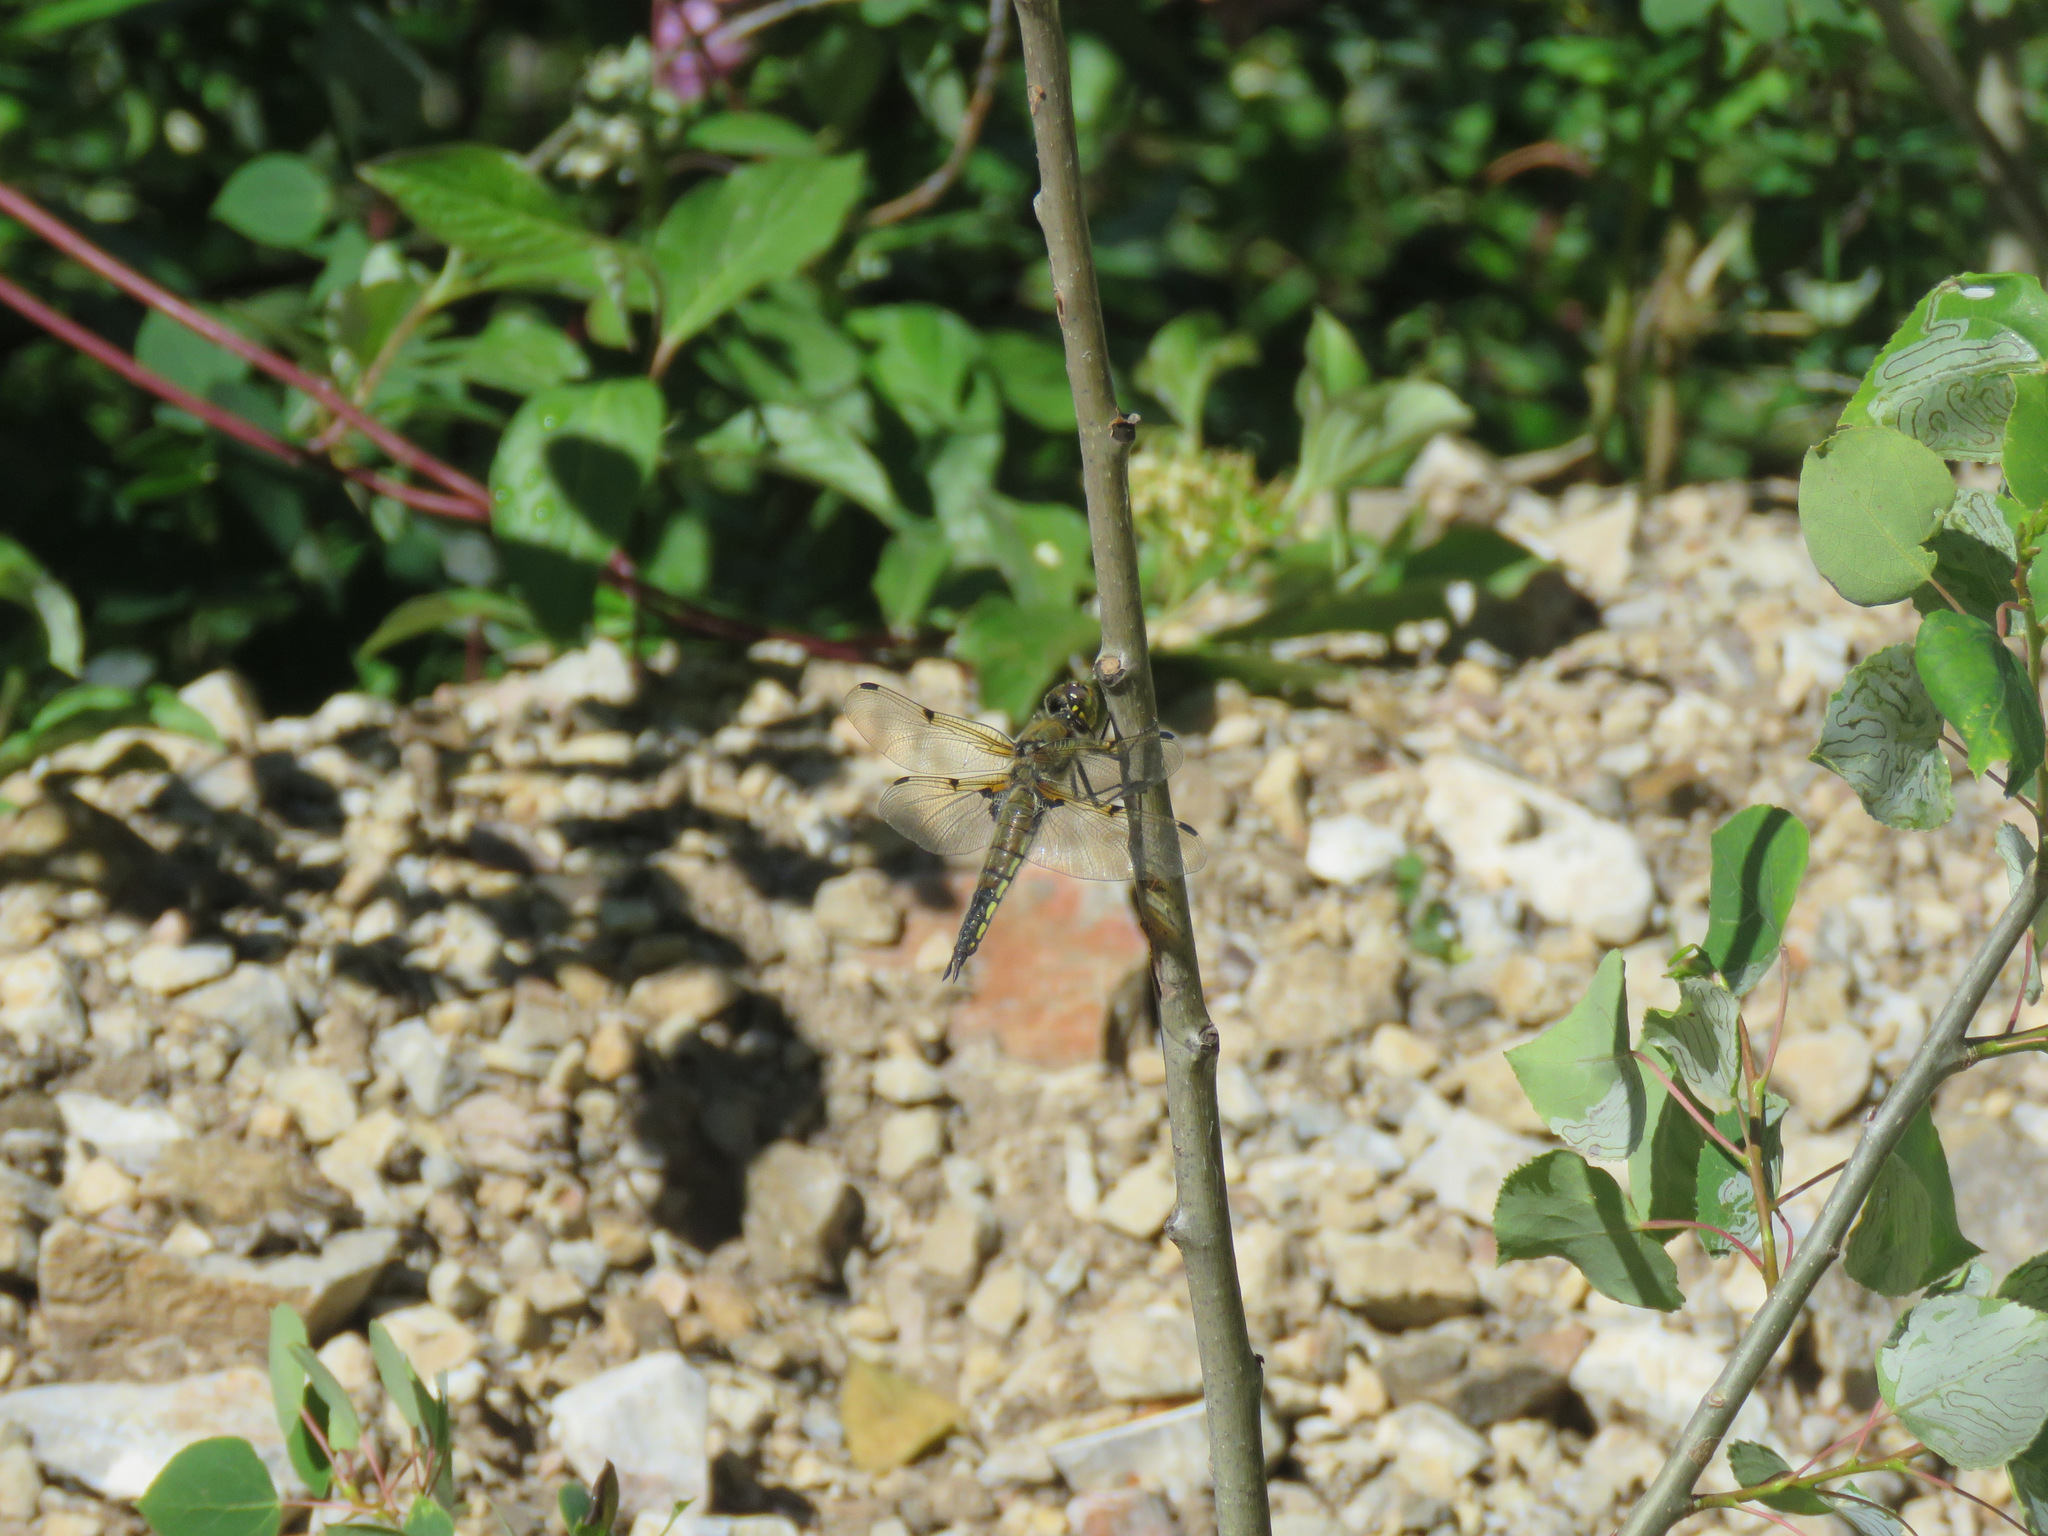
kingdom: Animalia
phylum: Arthropoda
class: Insecta
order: Odonata
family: Libellulidae
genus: Libellula
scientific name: Libellula quadrimaculata
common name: Four-spotted chaser
